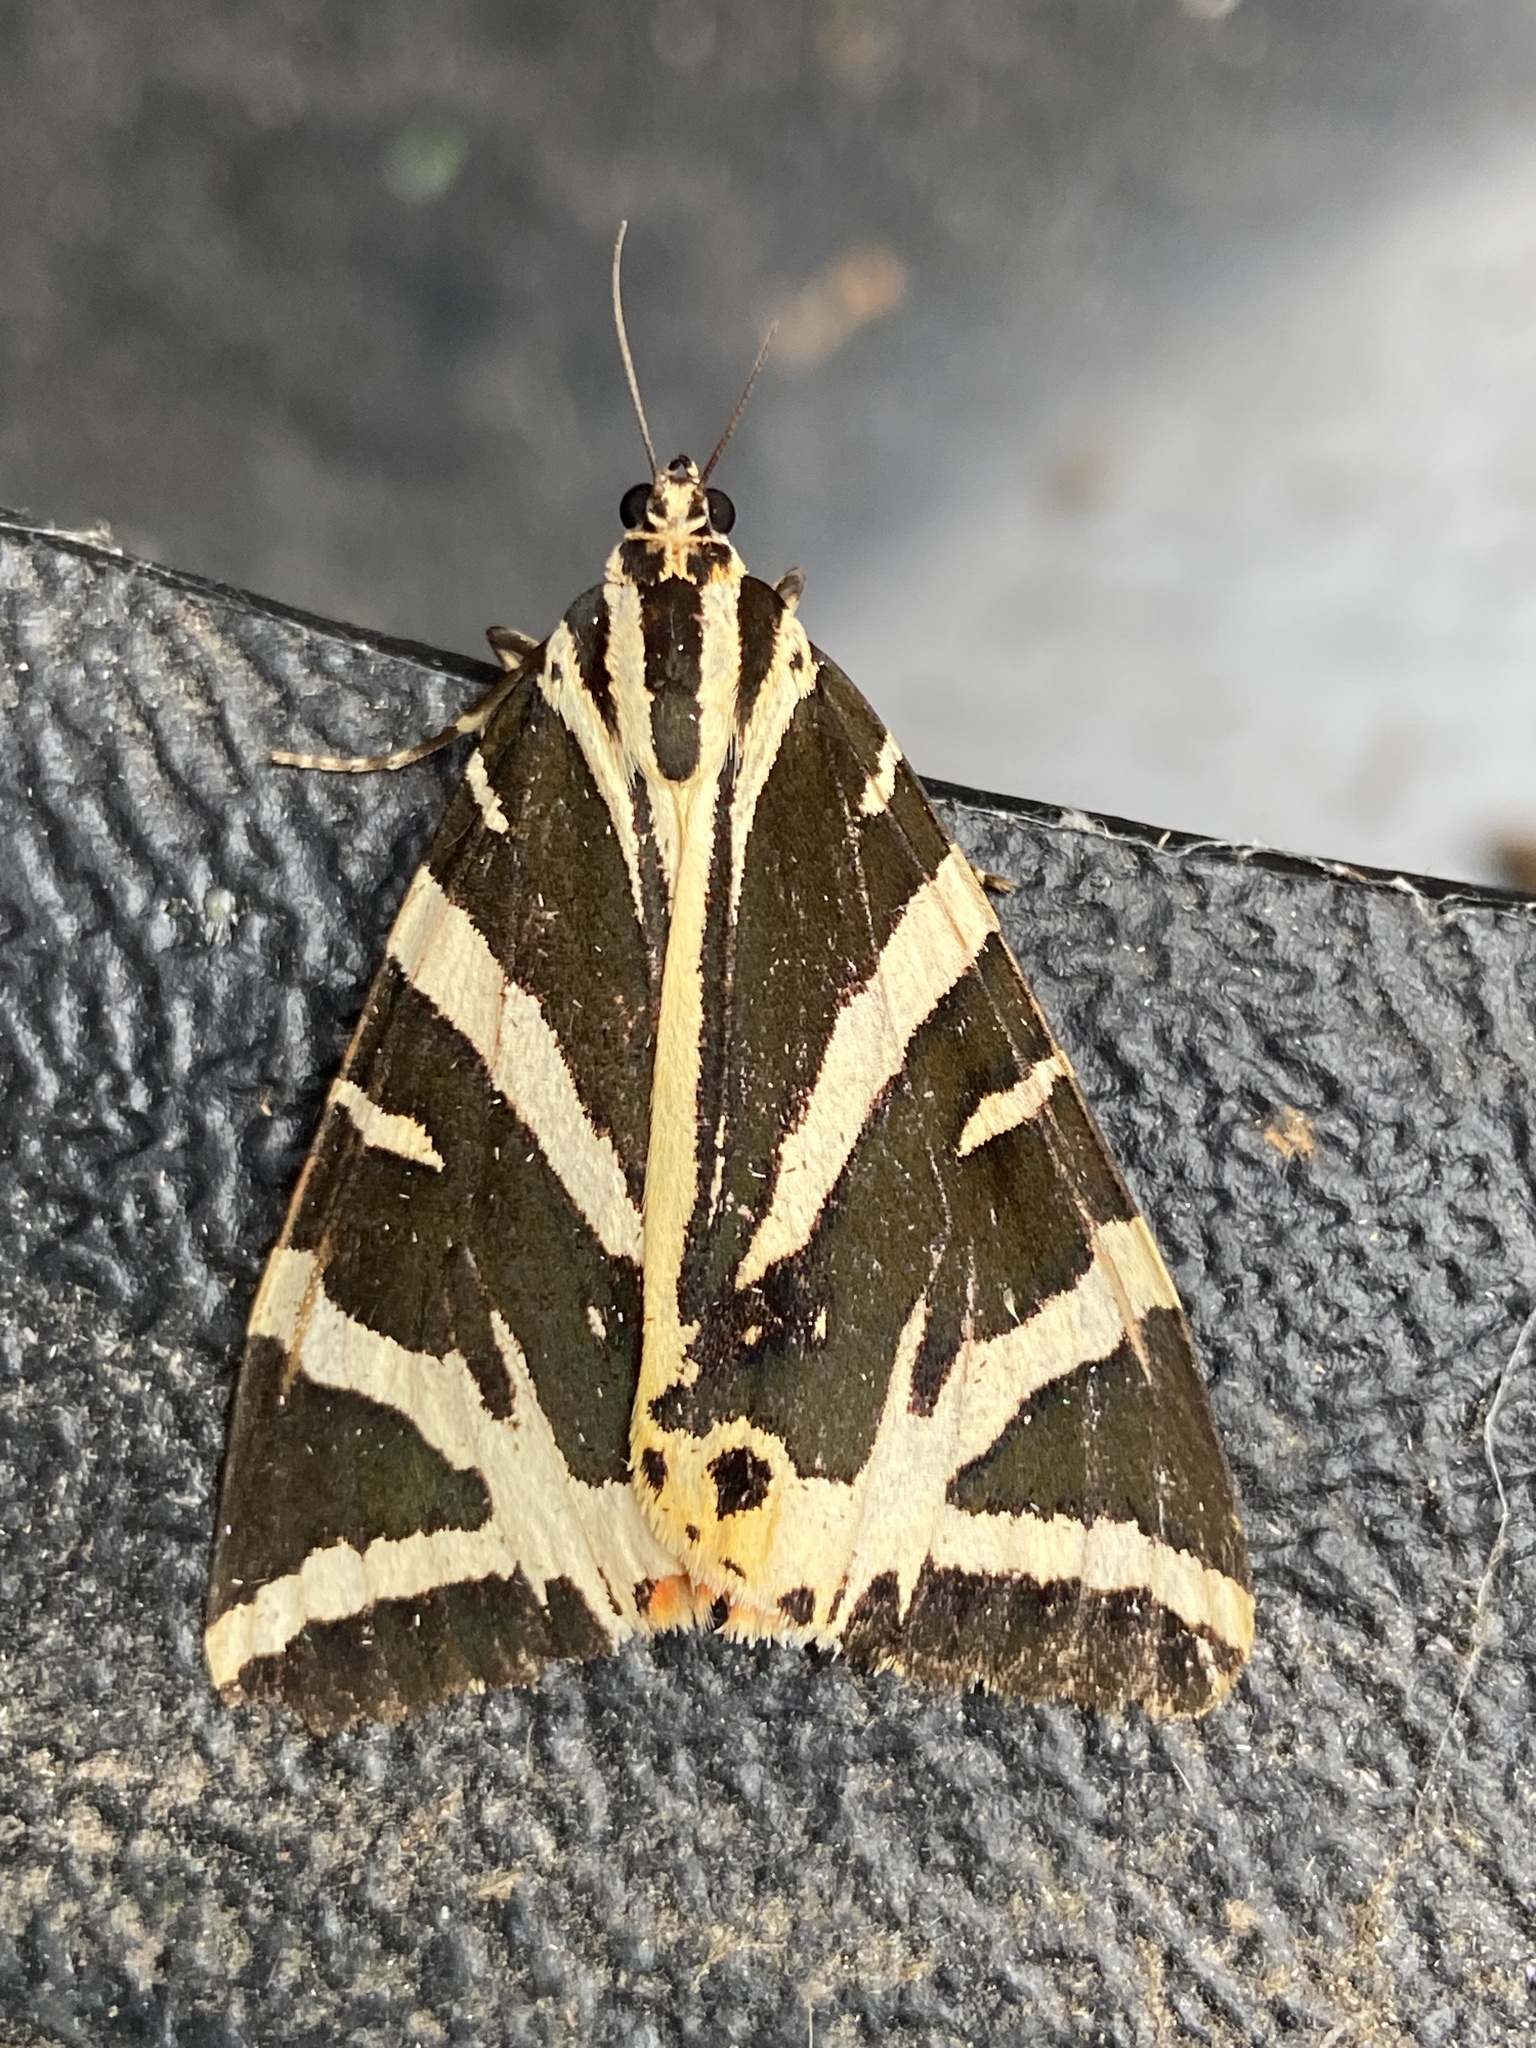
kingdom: Animalia
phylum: Arthropoda
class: Insecta
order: Lepidoptera
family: Erebidae
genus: Euplagia
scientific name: Euplagia quadripunctaria
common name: Jersey tiger
